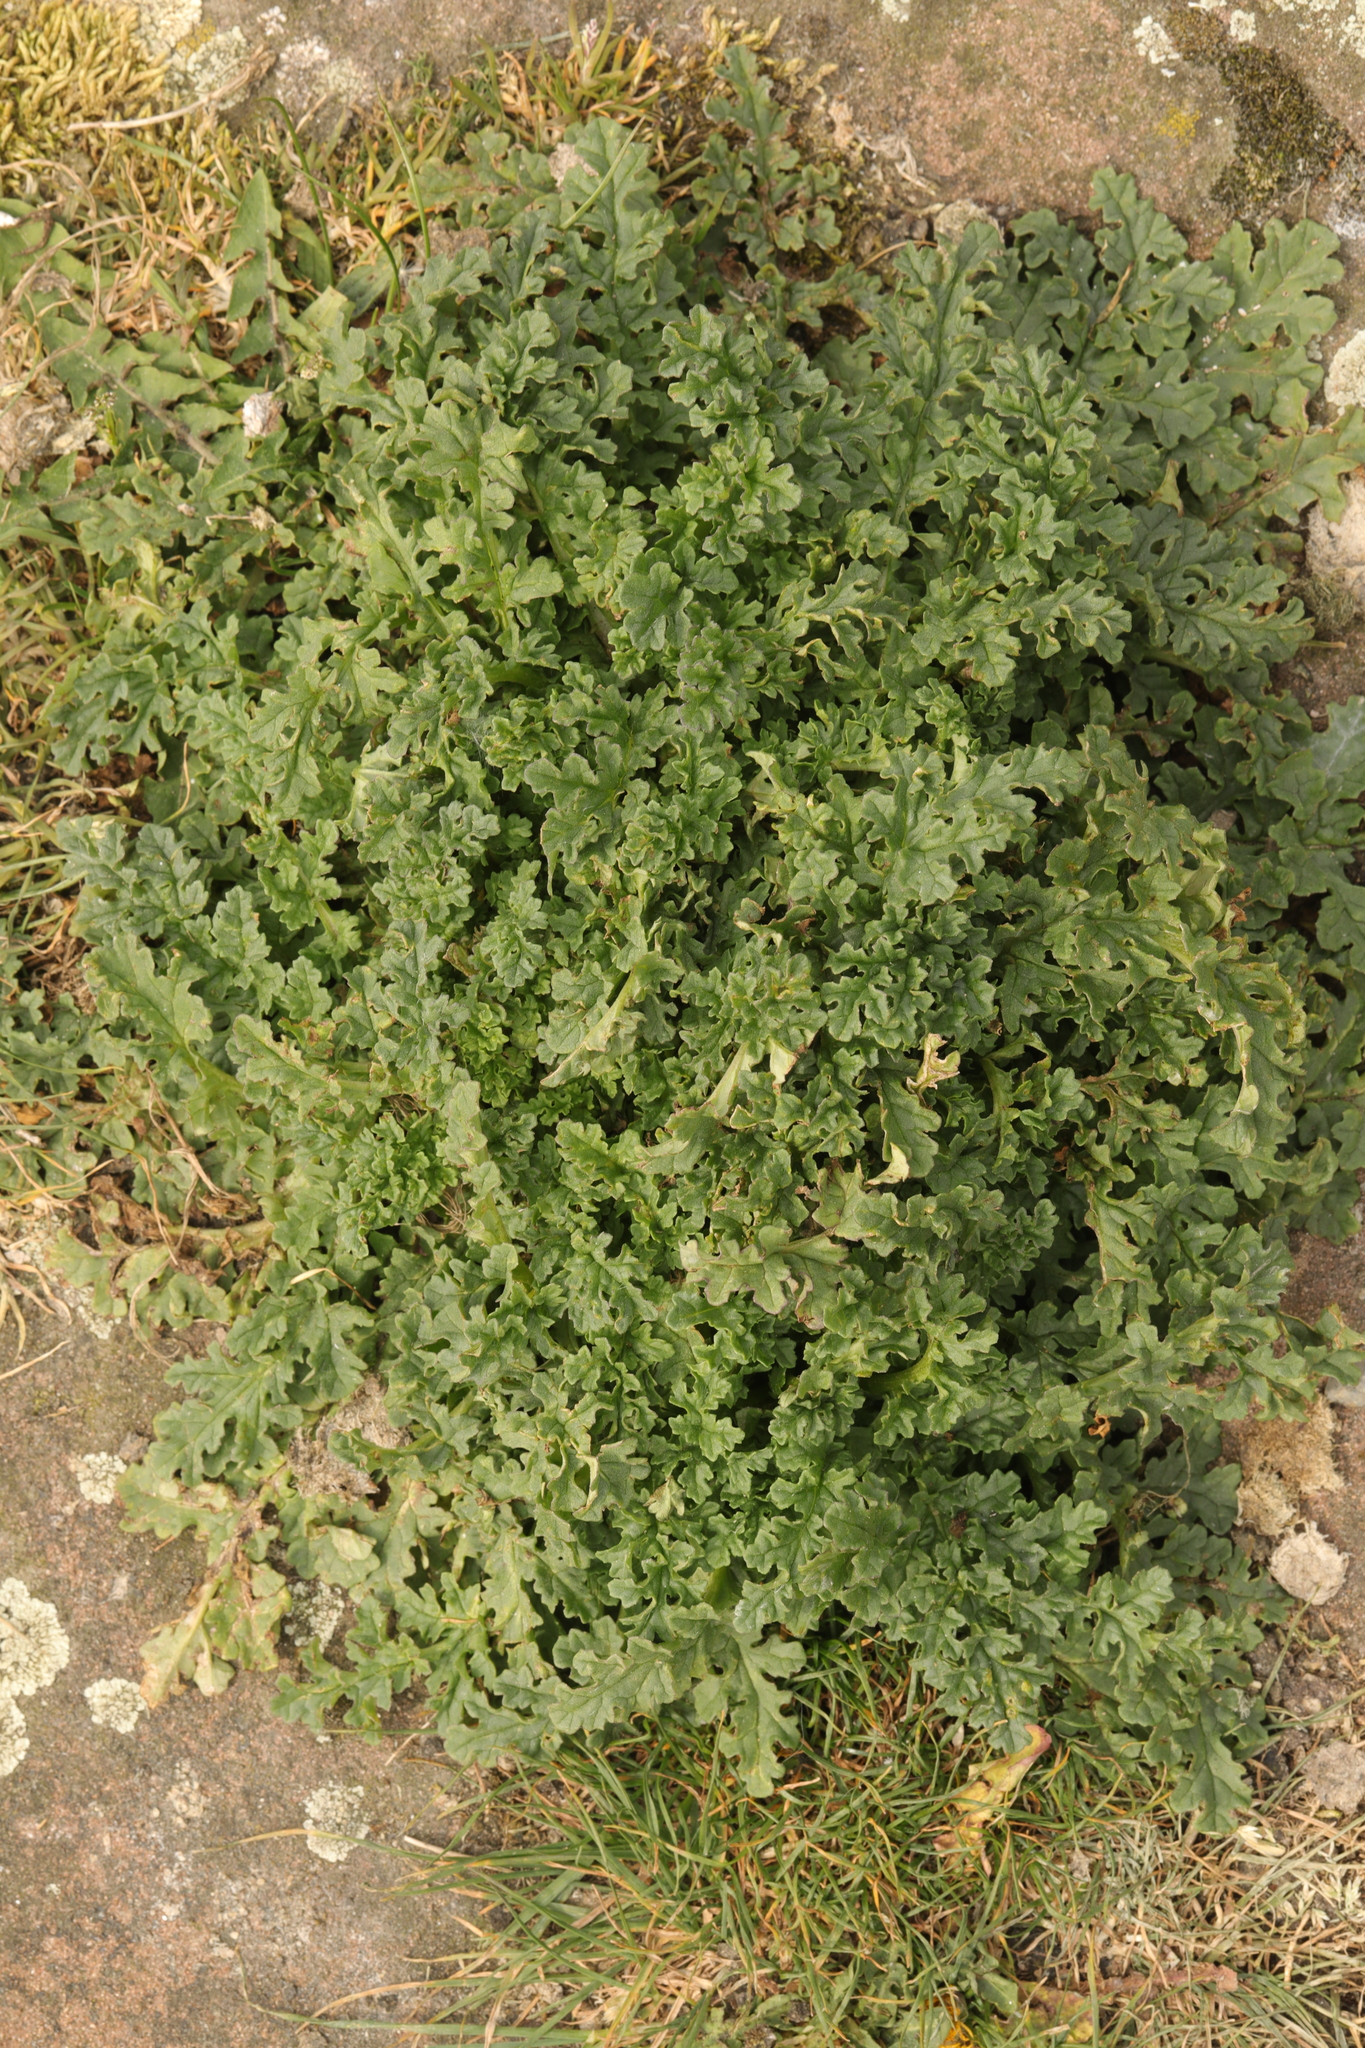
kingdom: Plantae
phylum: Tracheophyta
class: Magnoliopsida
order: Asterales
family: Asteraceae
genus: Jacobaea
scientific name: Jacobaea vulgaris
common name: Stinking willie
